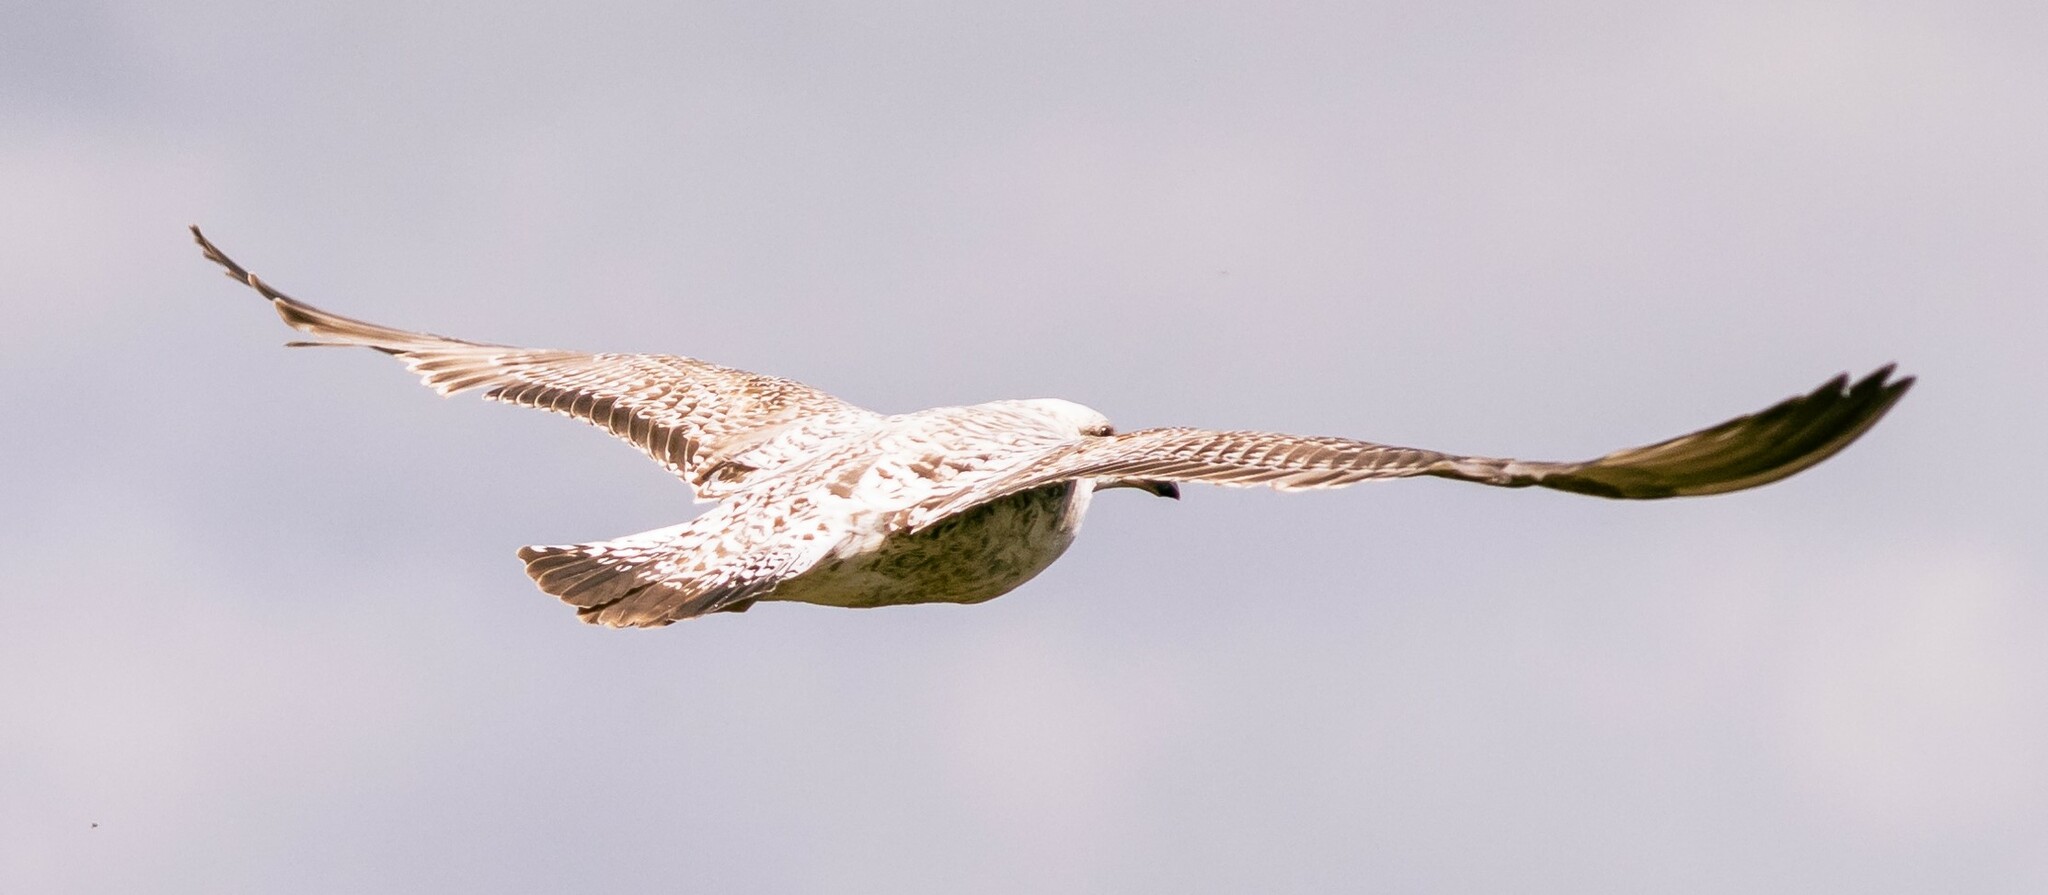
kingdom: Animalia
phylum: Chordata
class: Aves
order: Charadriiformes
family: Laridae
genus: Larus
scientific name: Larus argentatus
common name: Herring gull
